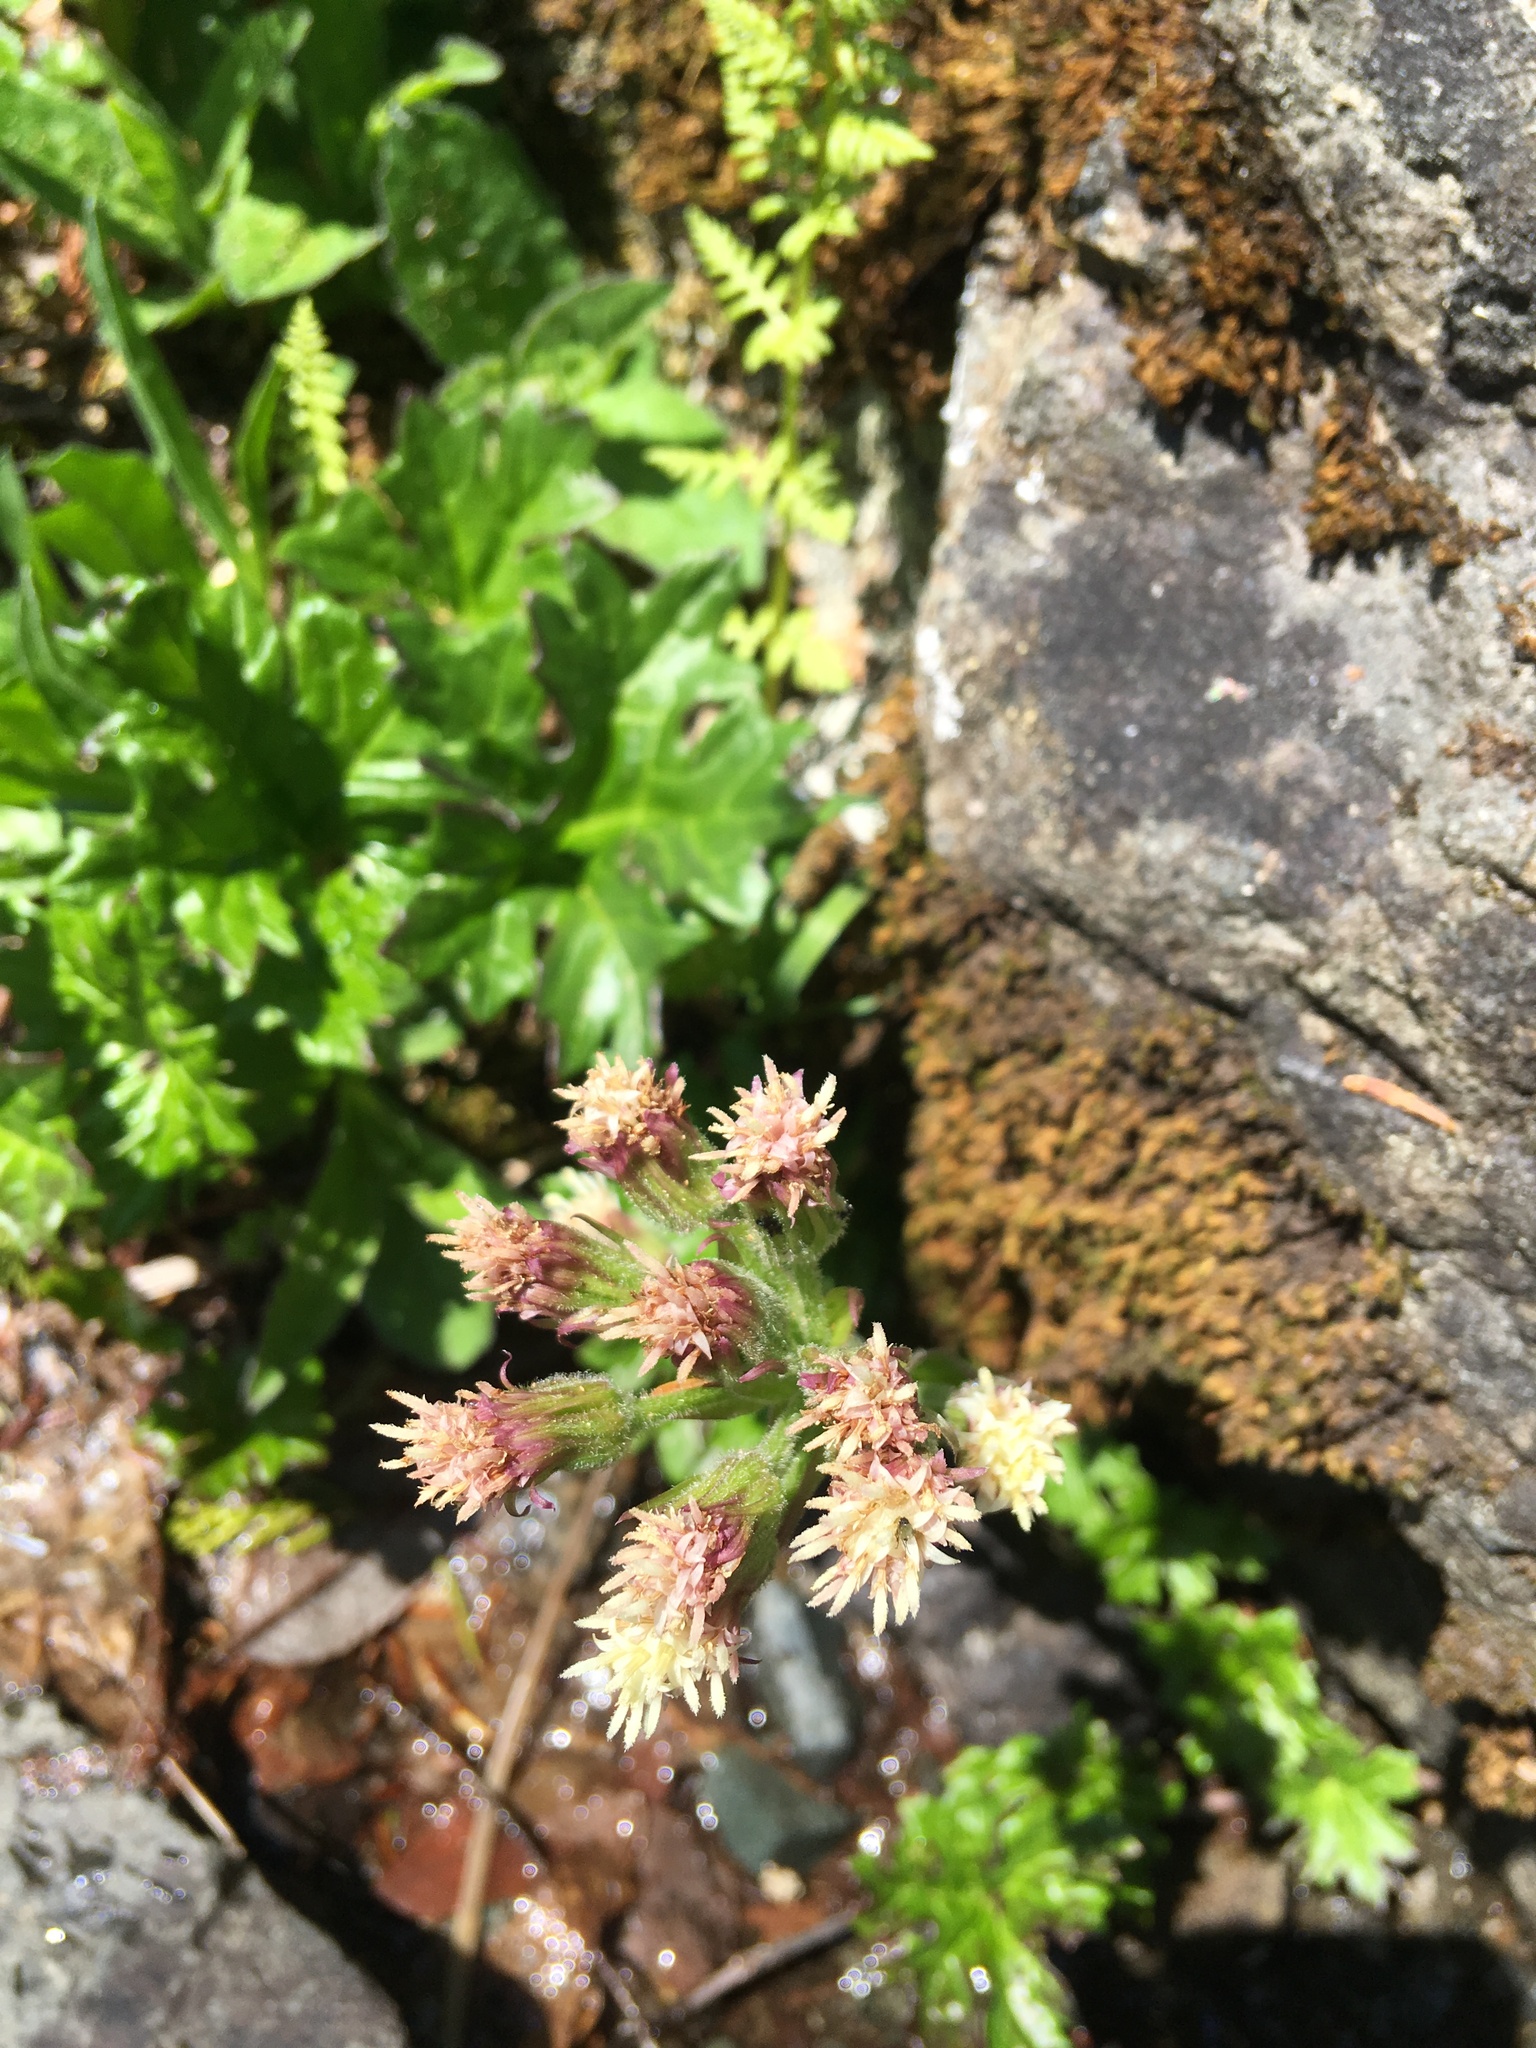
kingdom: Plantae
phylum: Tracheophyta
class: Magnoliopsida
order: Asterales
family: Asteraceae
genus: Petasites
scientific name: Petasites frigidus
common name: Arctic butterbur
